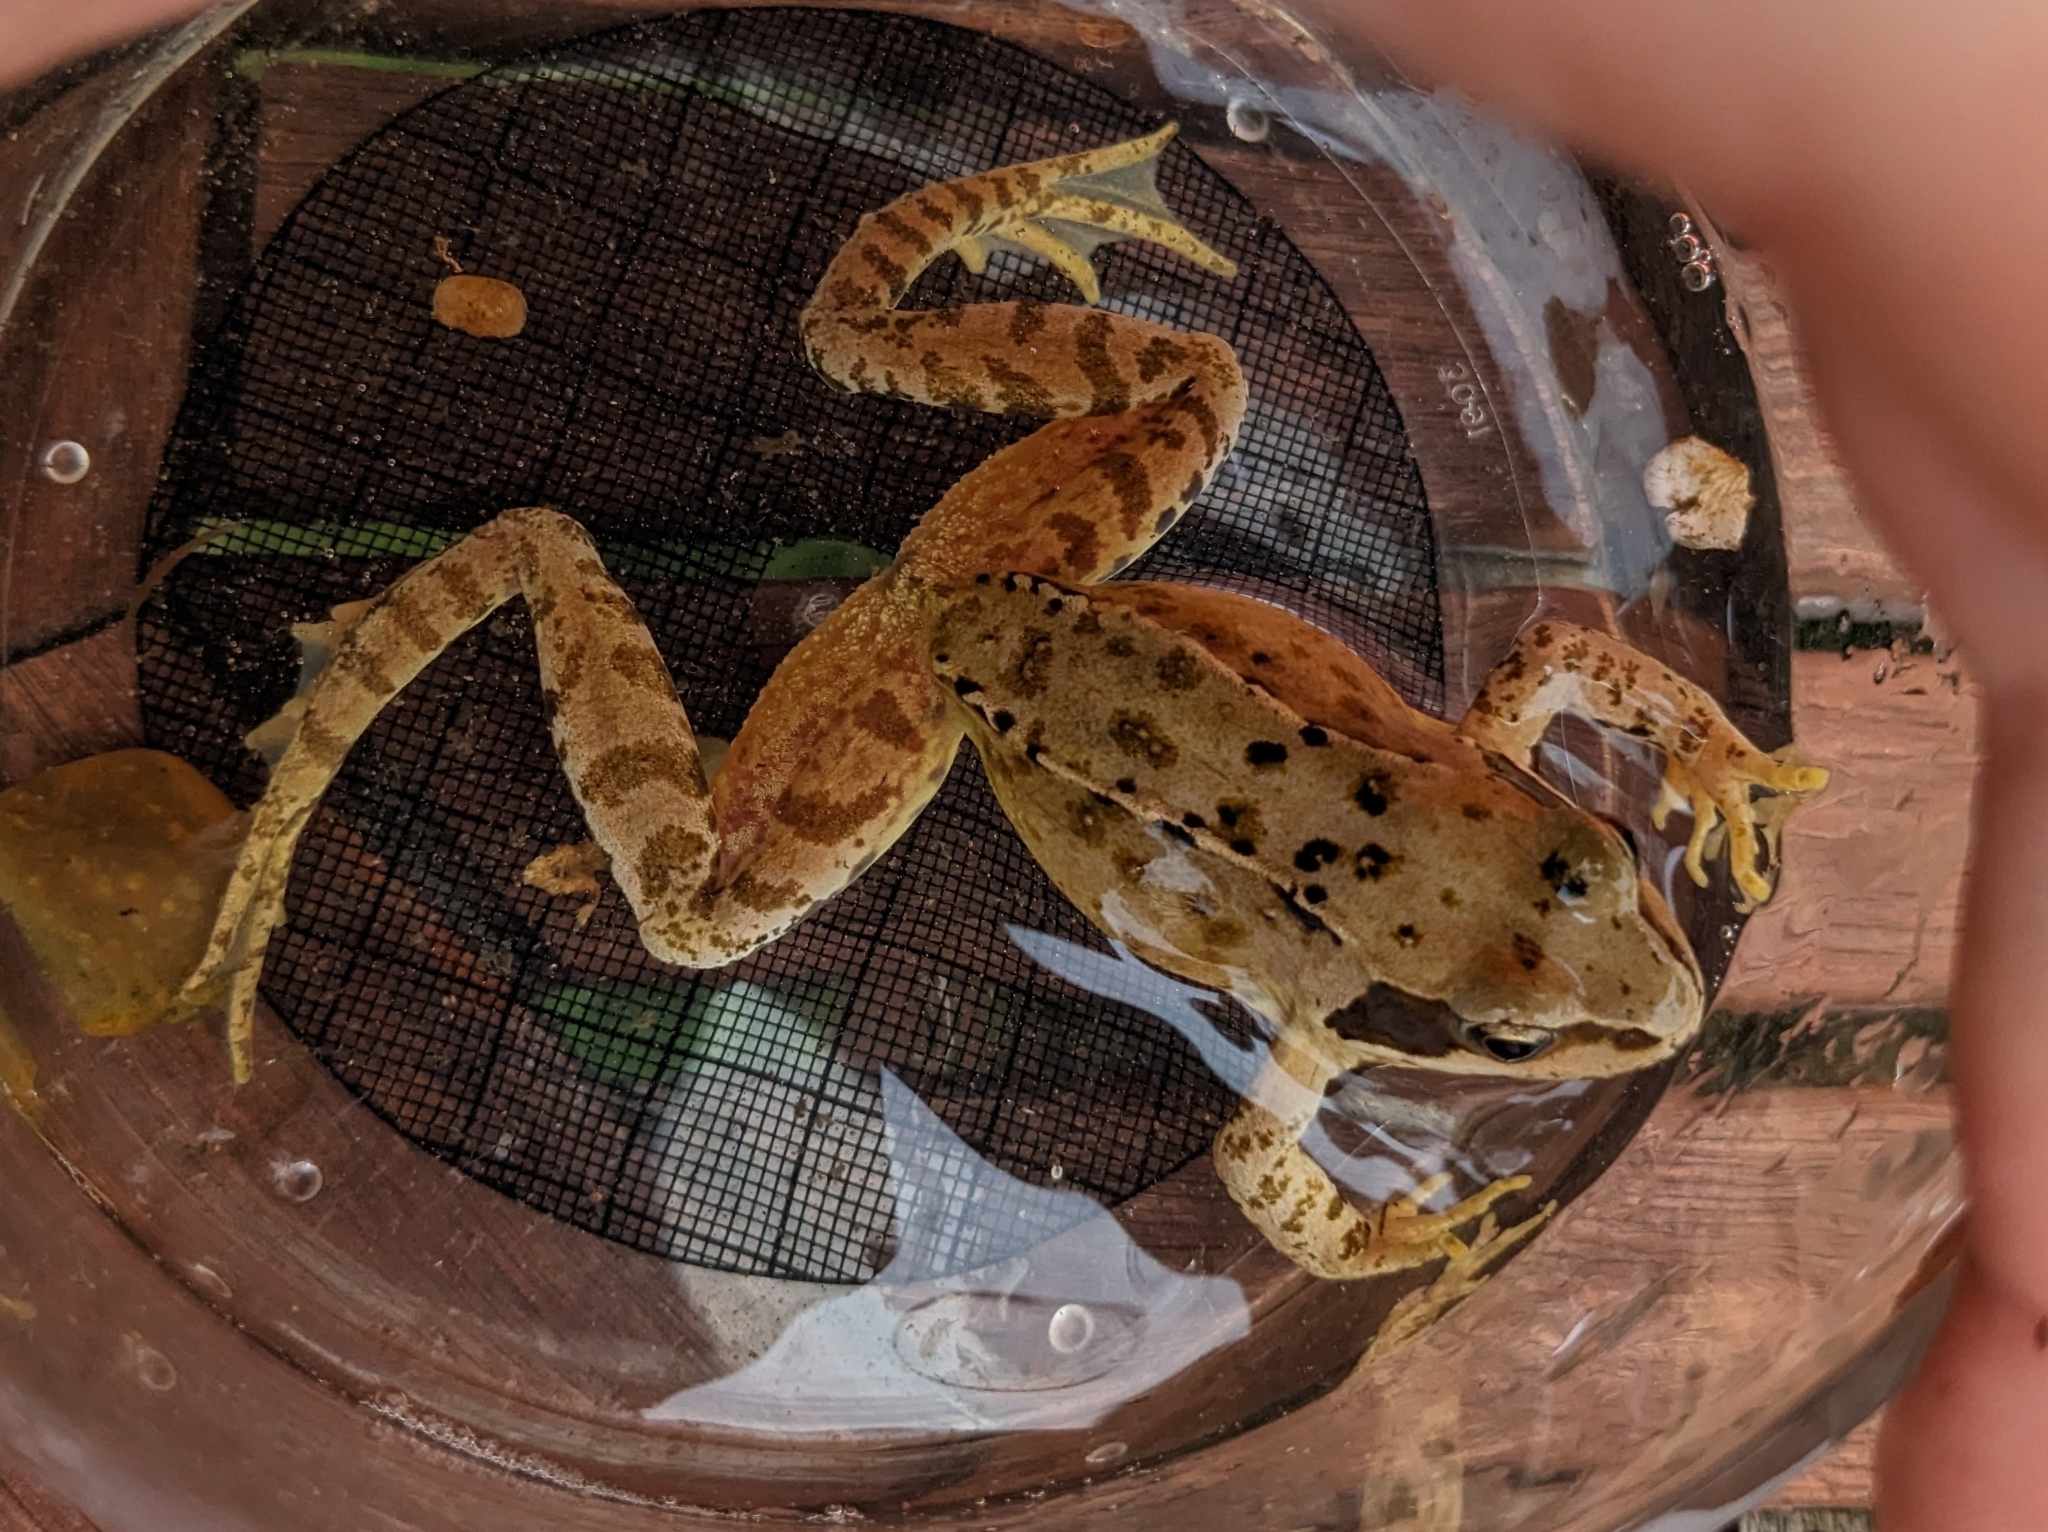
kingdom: Animalia
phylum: Chordata
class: Amphibia
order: Anura
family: Ranidae
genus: Rana
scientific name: Rana temporaria
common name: Common frog
